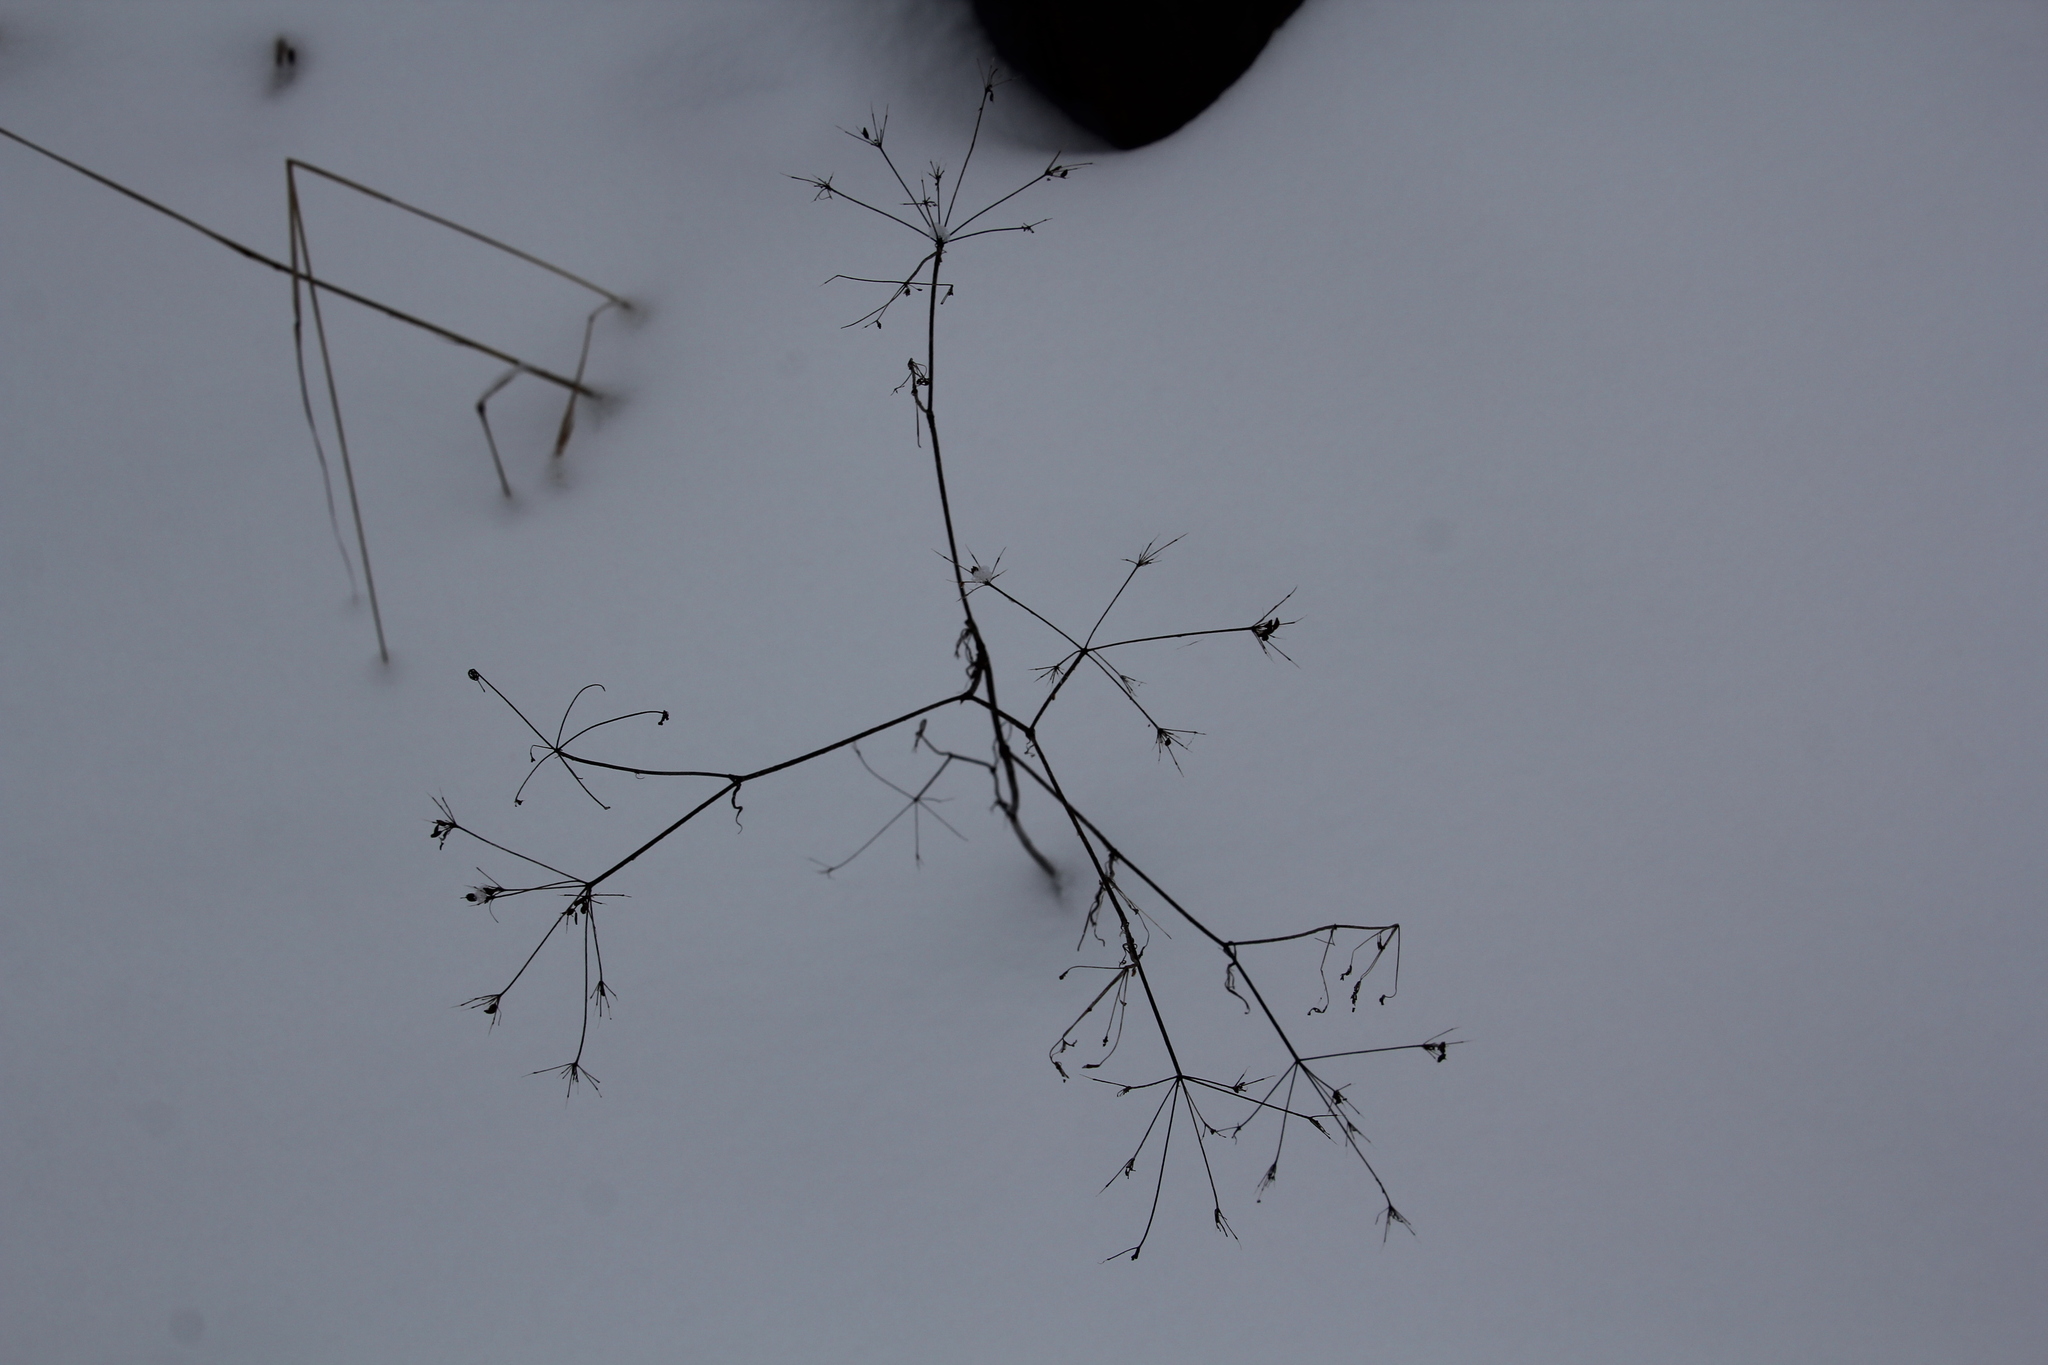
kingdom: Plantae
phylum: Tracheophyta
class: Magnoliopsida
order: Apiales
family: Apiaceae
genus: Carum
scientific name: Carum carvi
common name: Caraway
